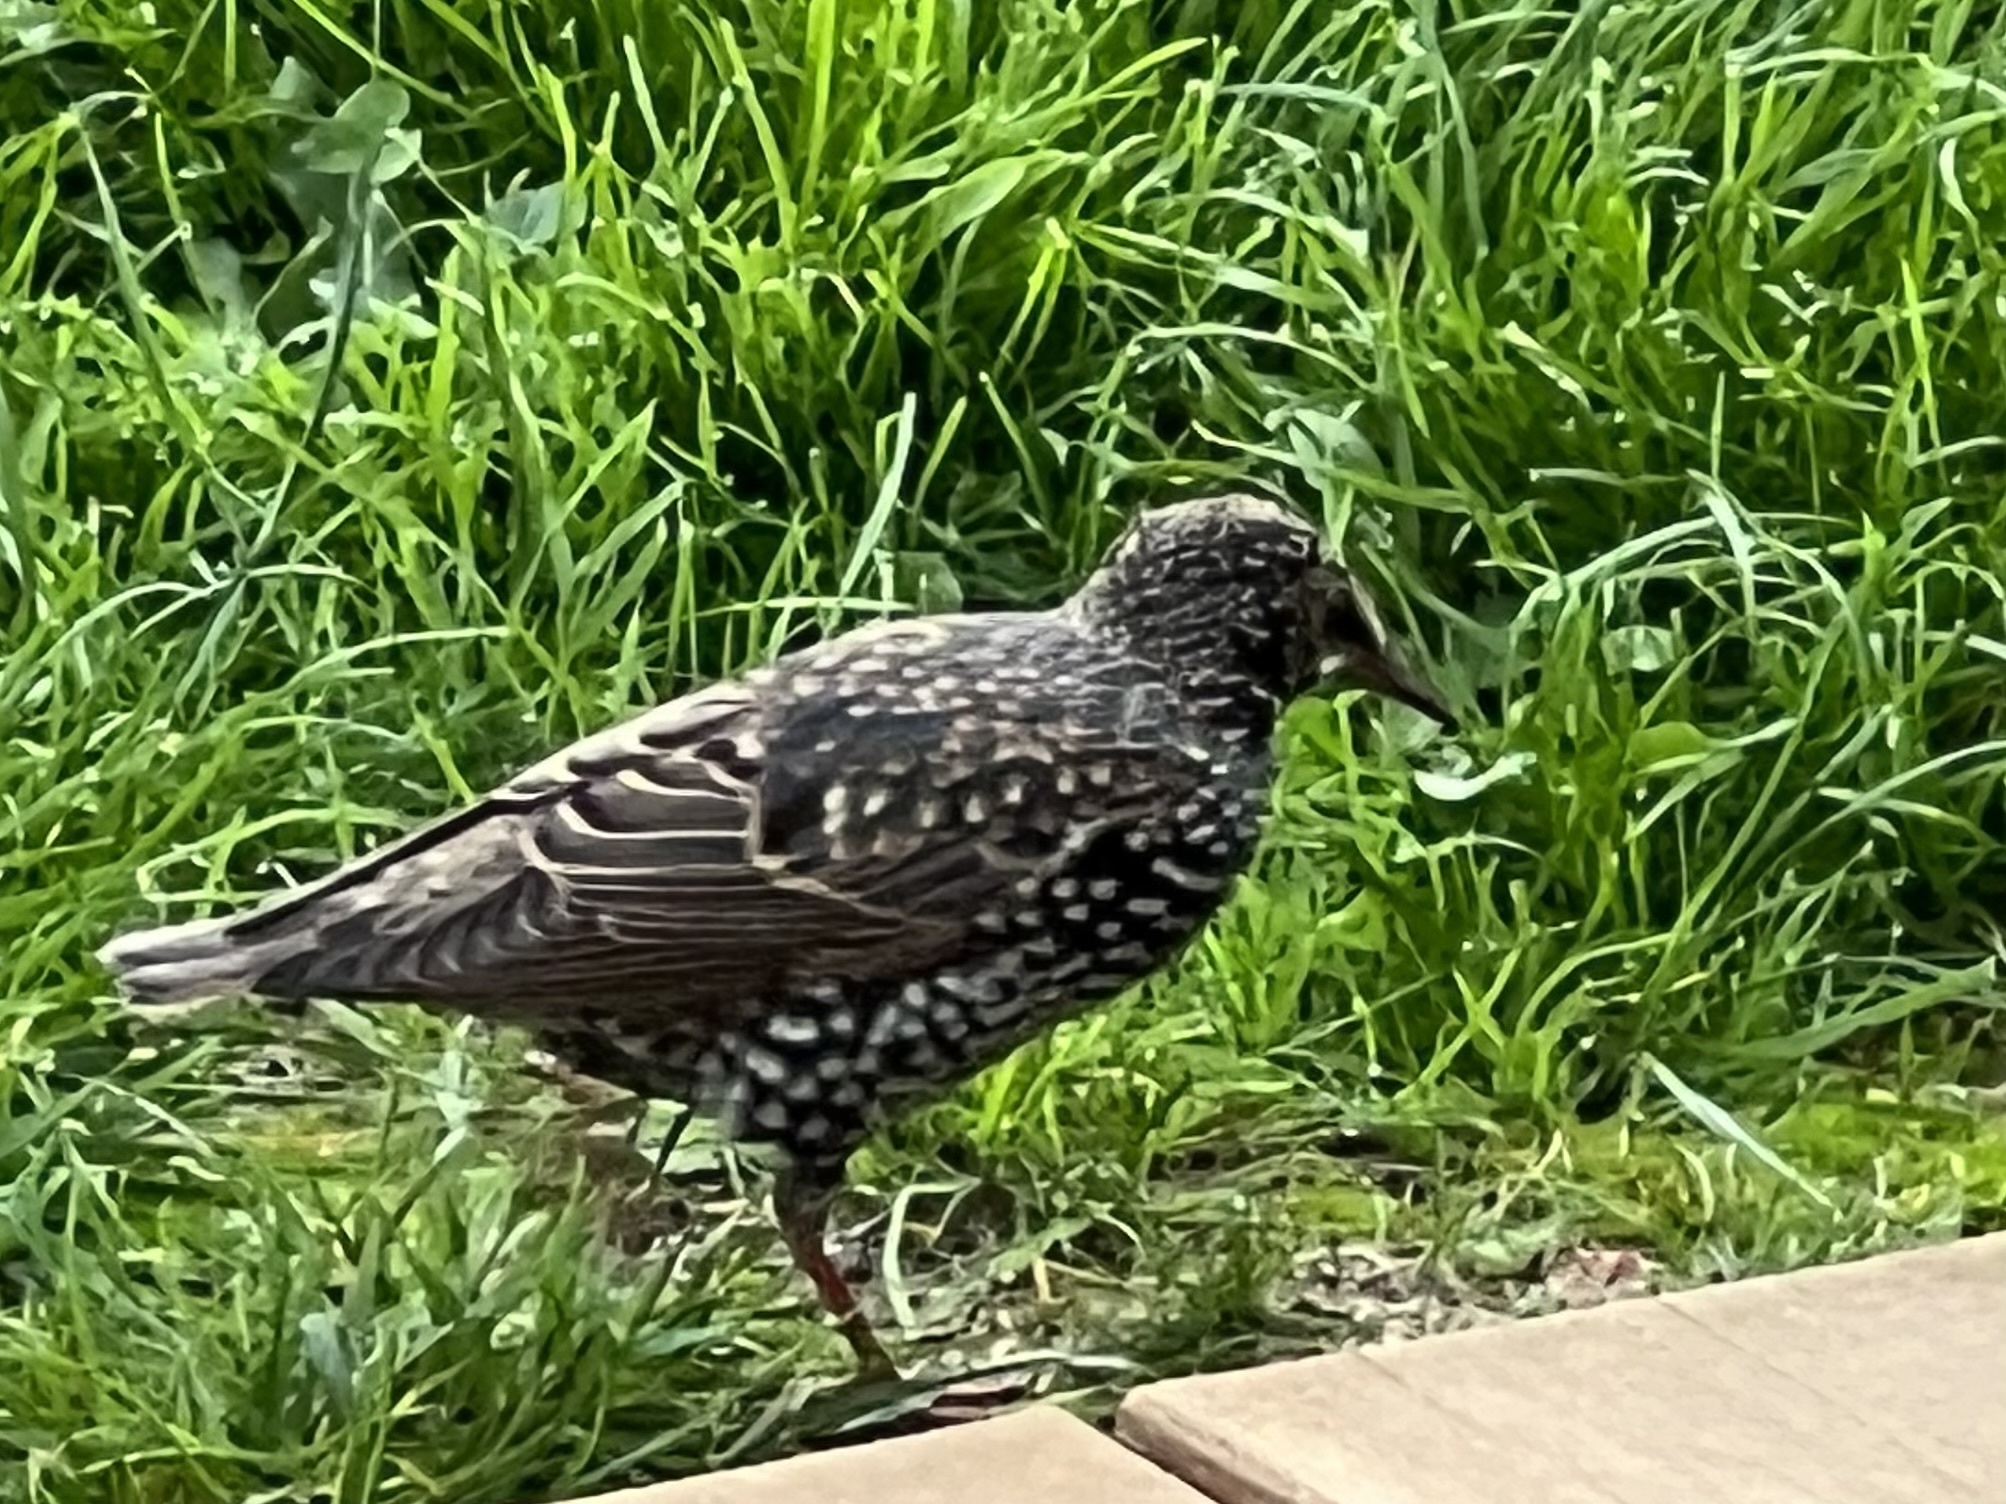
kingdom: Animalia
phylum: Chordata
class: Aves
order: Passeriformes
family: Sturnidae
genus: Sturnus
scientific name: Sturnus vulgaris
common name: Common starling
